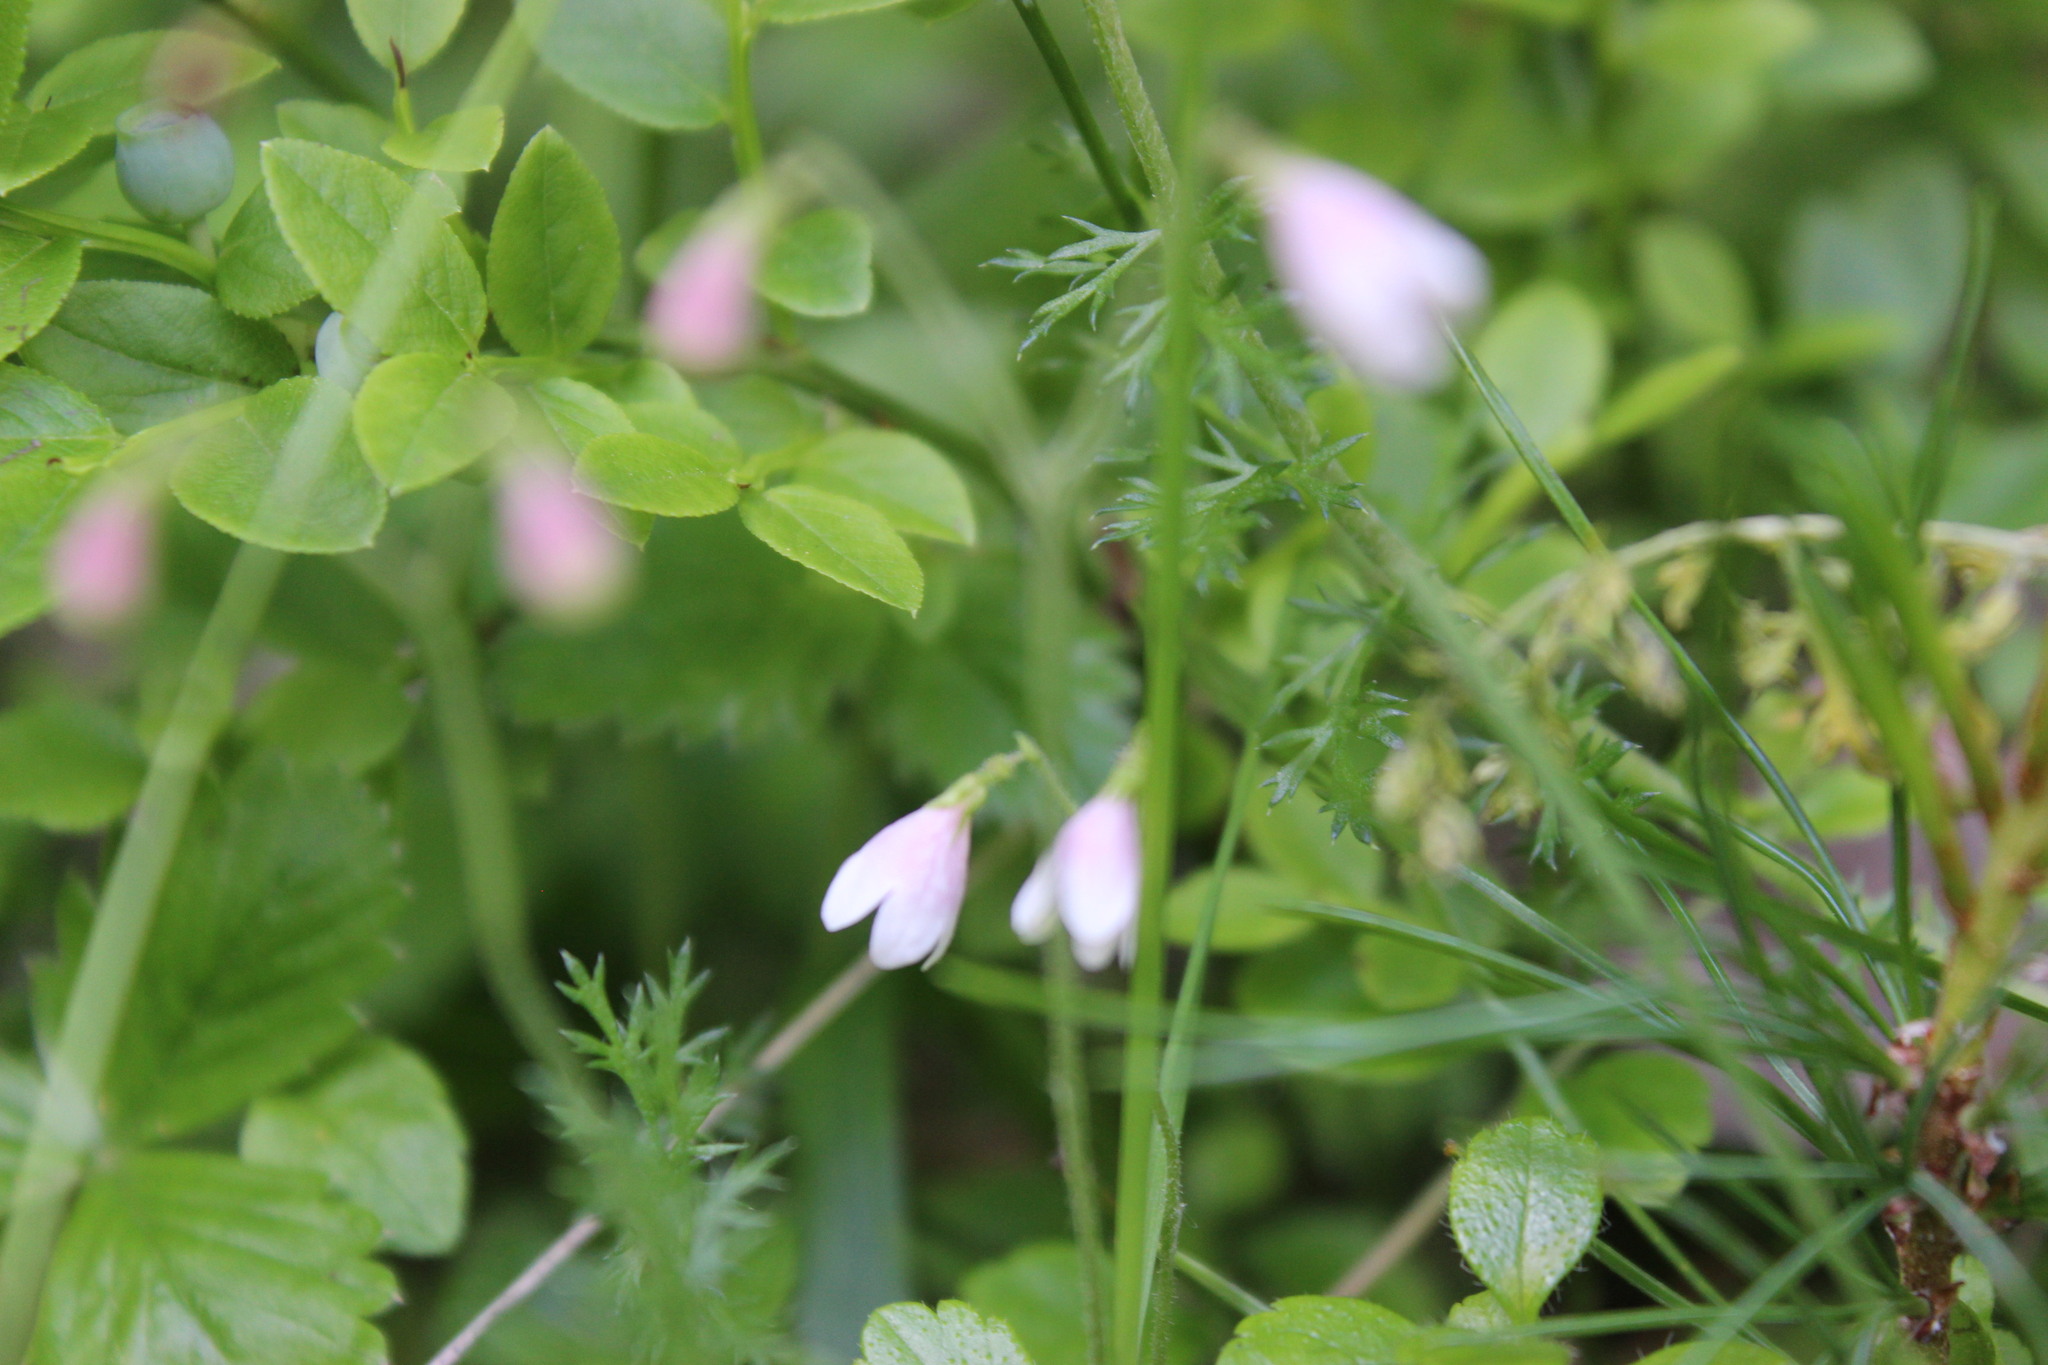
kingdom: Plantae
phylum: Tracheophyta
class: Magnoliopsida
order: Dipsacales
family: Caprifoliaceae
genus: Linnaea
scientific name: Linnaea borealis
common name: Twinflower
